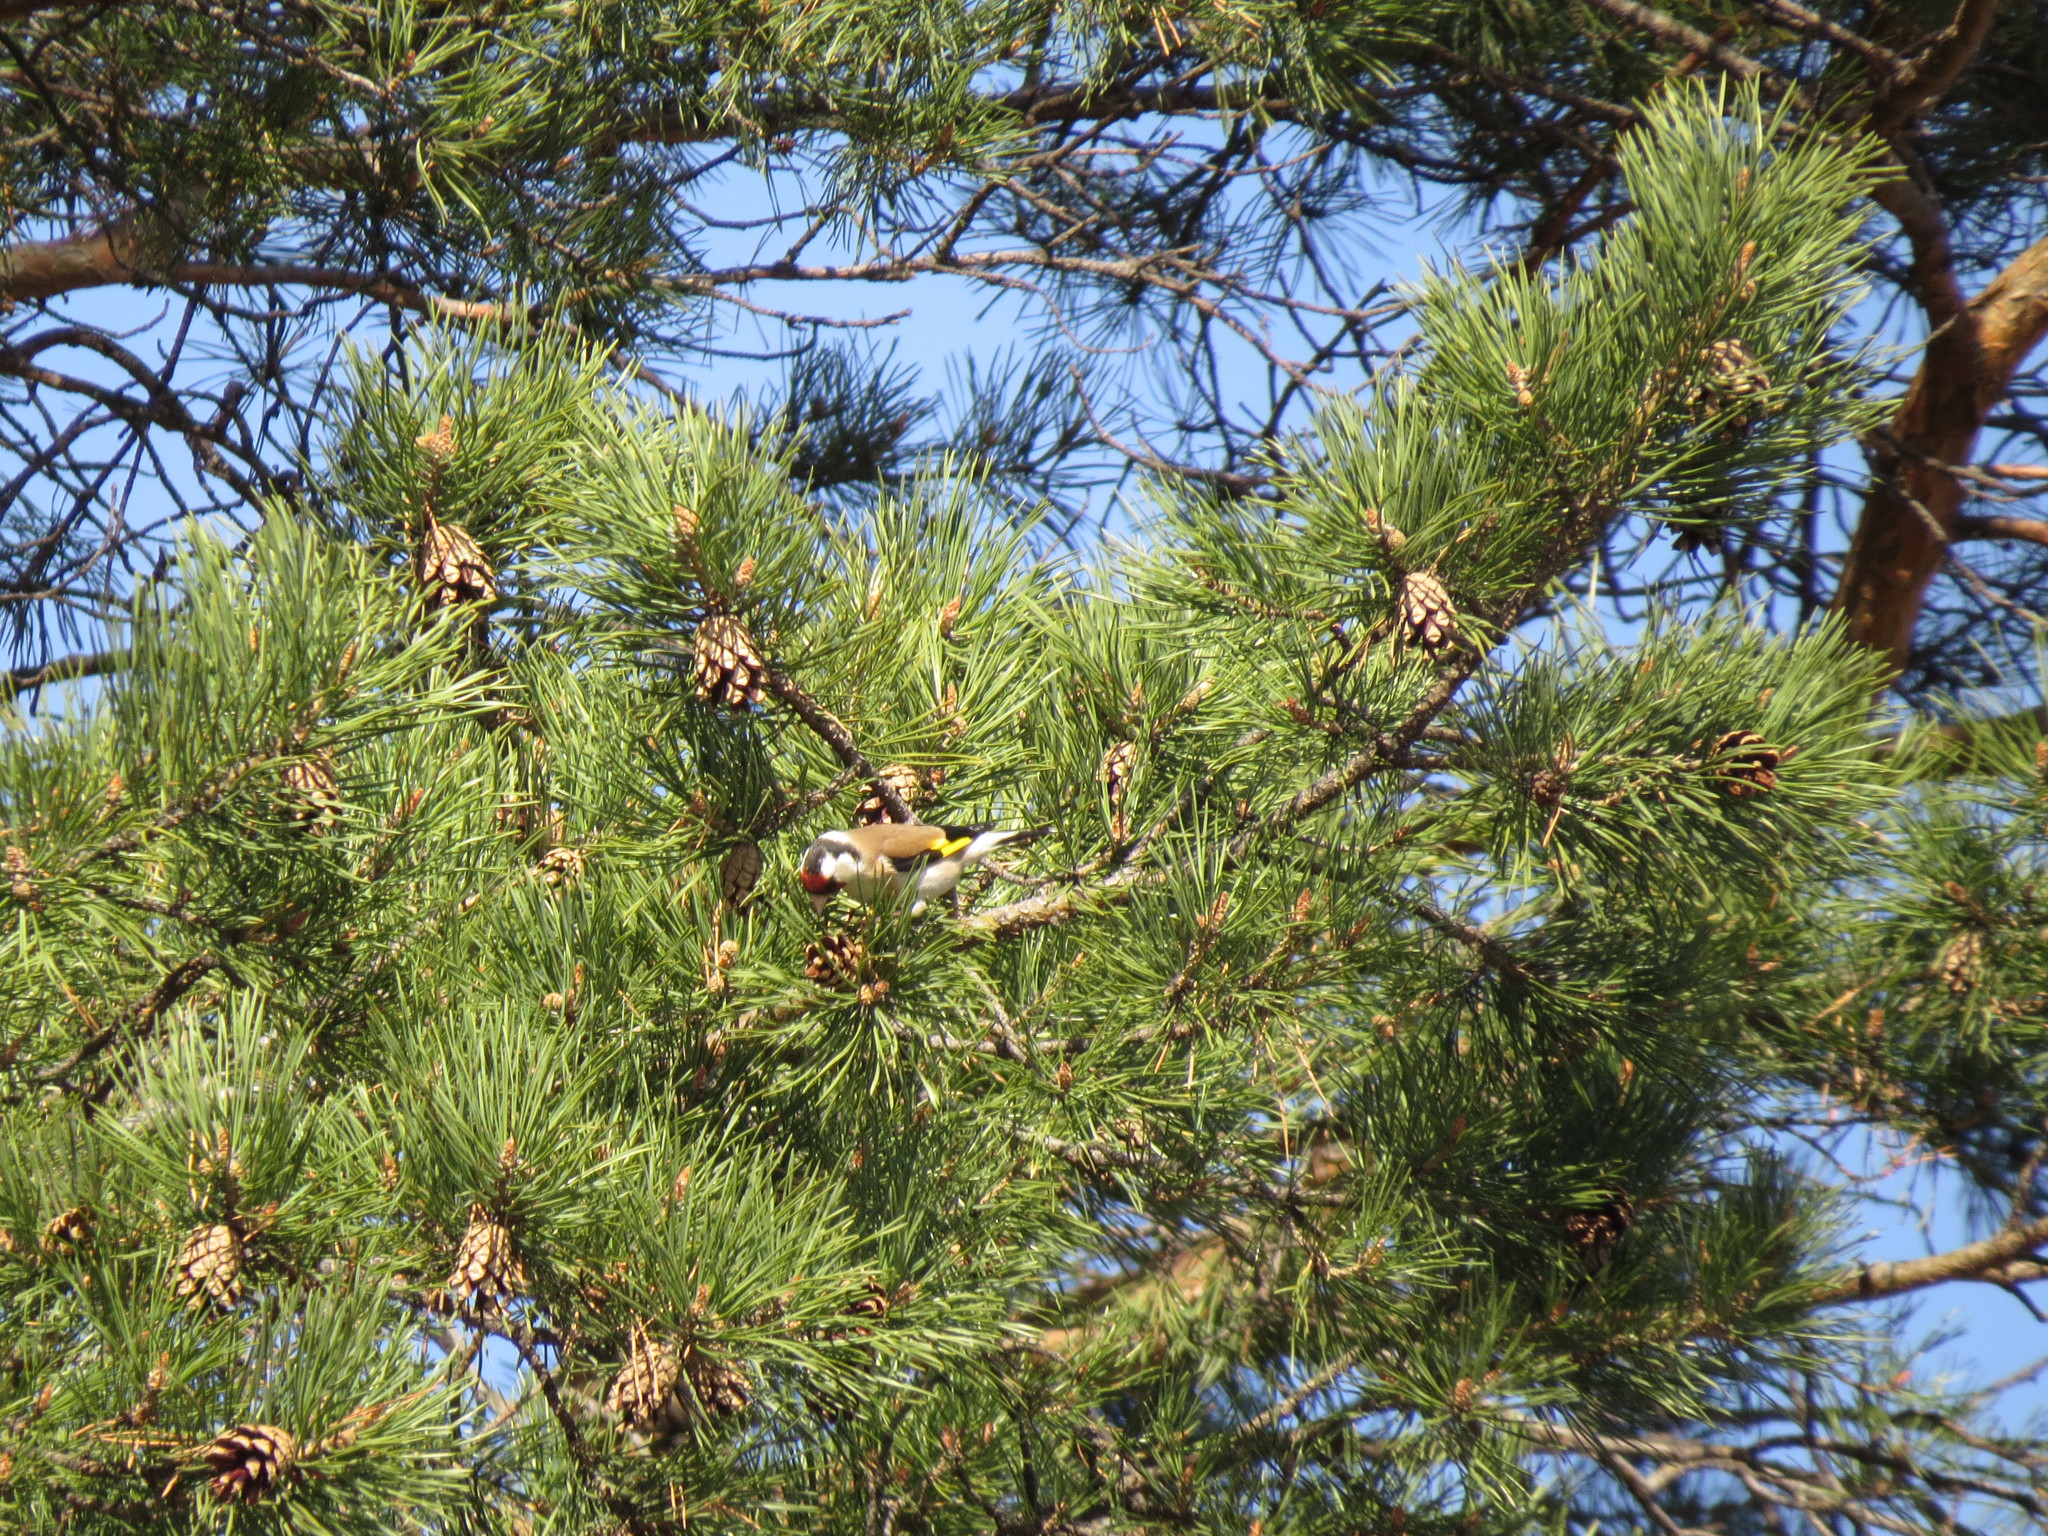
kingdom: Animalia
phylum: Chordata
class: Aves
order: Passeriformes
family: Fringillidae
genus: Carduelis
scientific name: Carduelis carduelis
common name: European goldfinch
